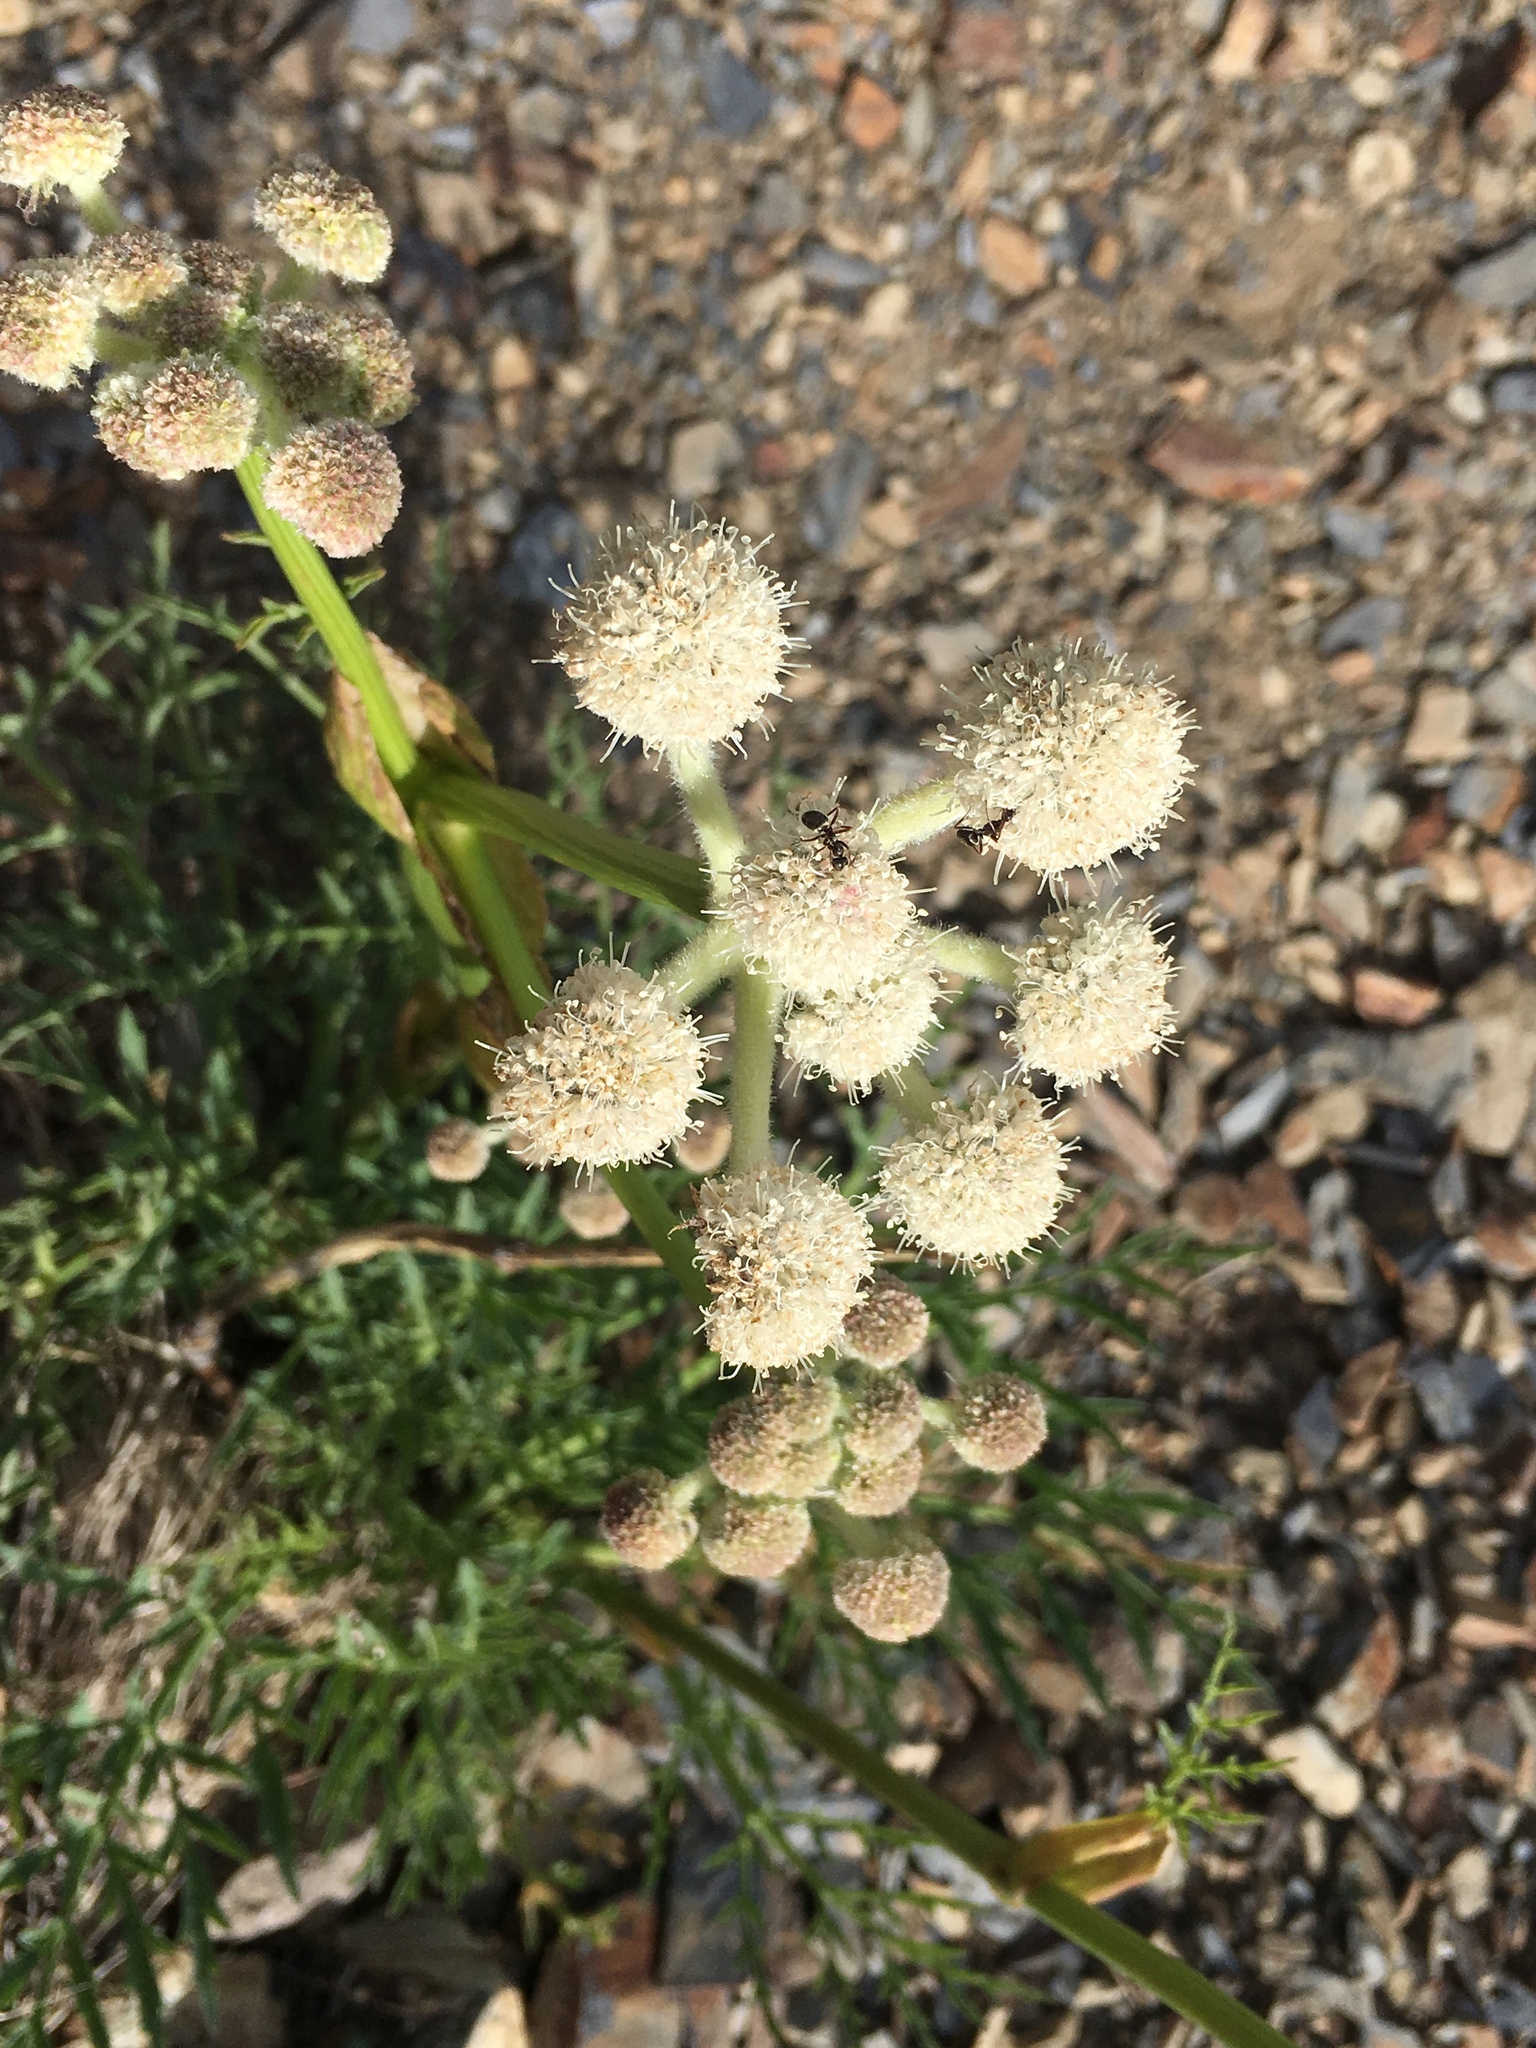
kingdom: Plantae
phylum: Tracheophyta
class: Magnoliopsida
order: Apiales
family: Apiaceae
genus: Angelica
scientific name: Angelica capitellata
